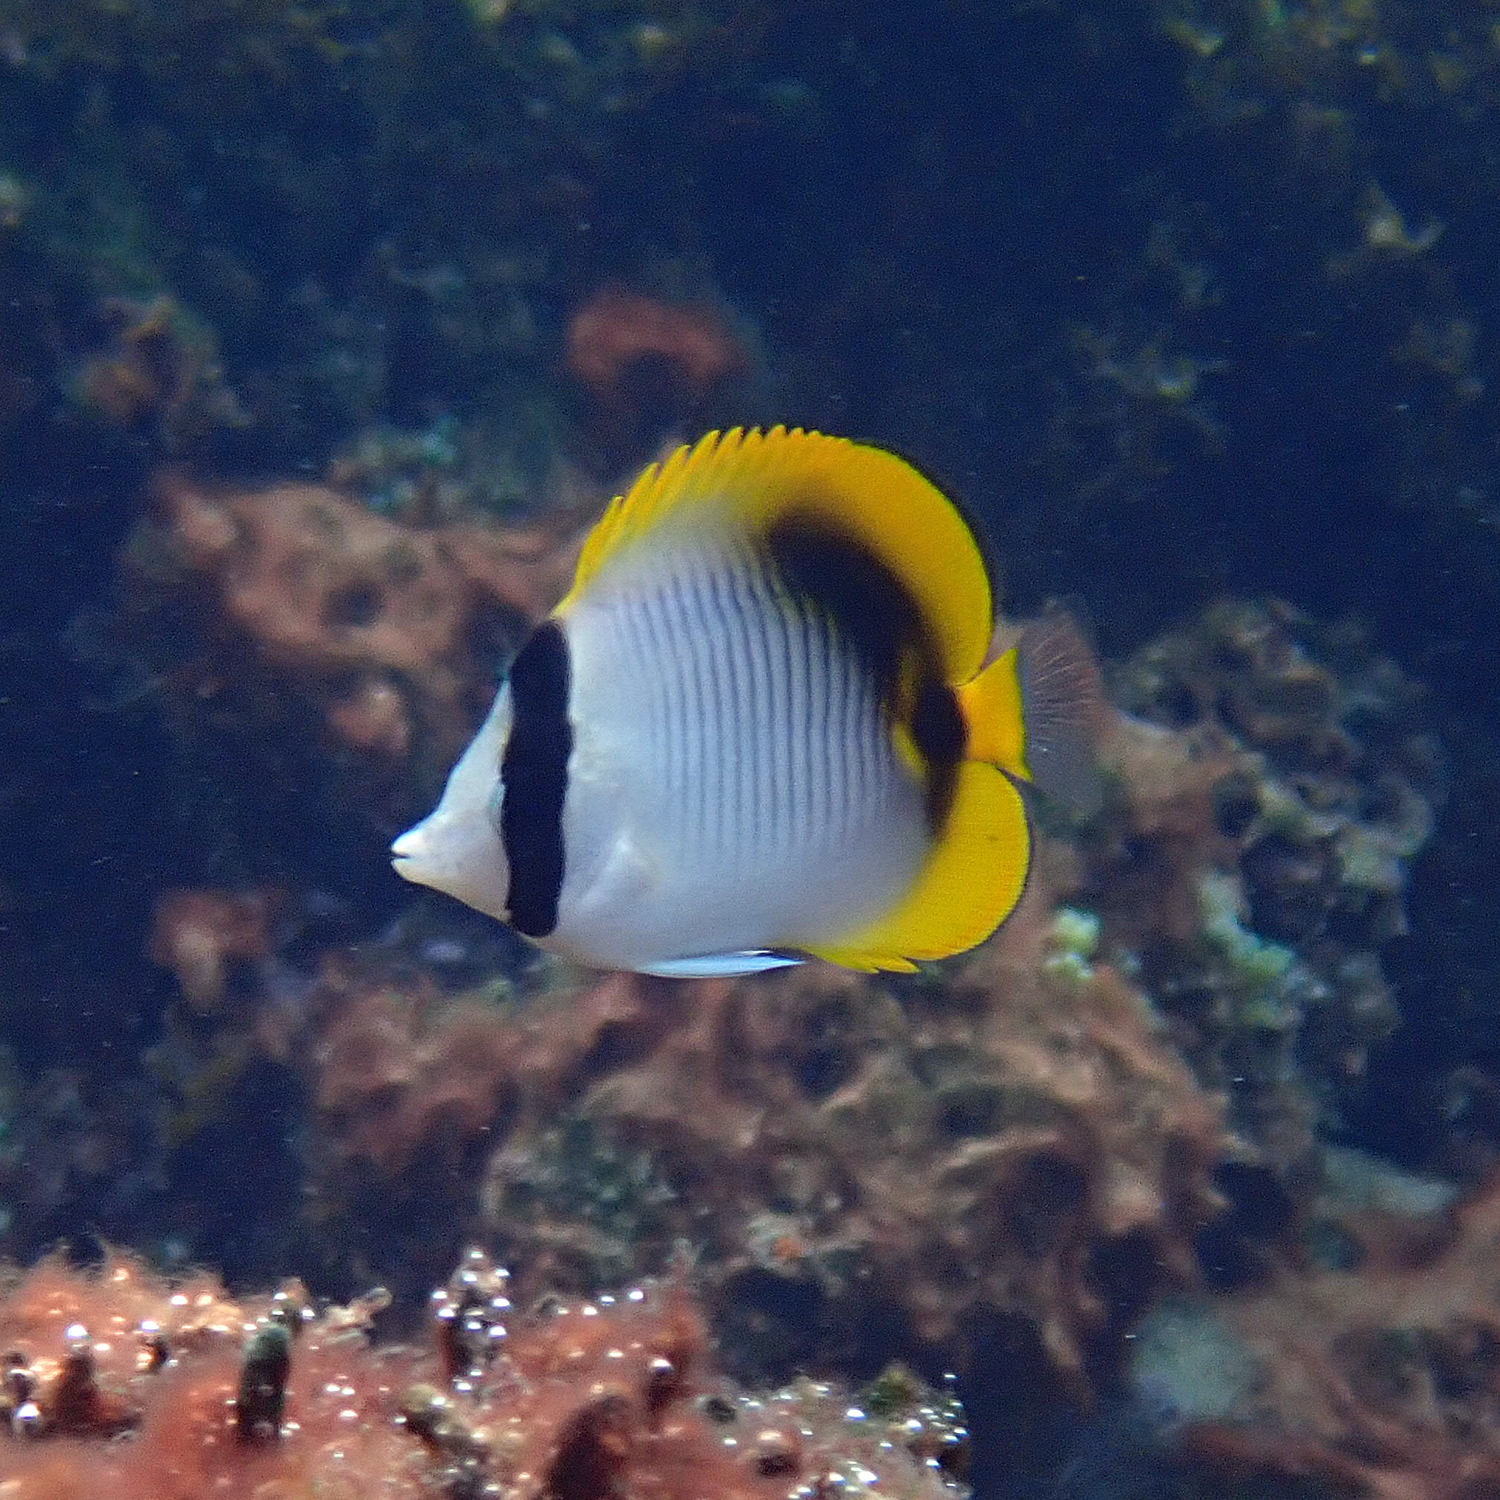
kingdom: Animalia
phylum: Chordata
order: Perciformes
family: Chaetodontidae
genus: Chaetodon
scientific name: Chaetodon lineolatus
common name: Lined butterflyfish
